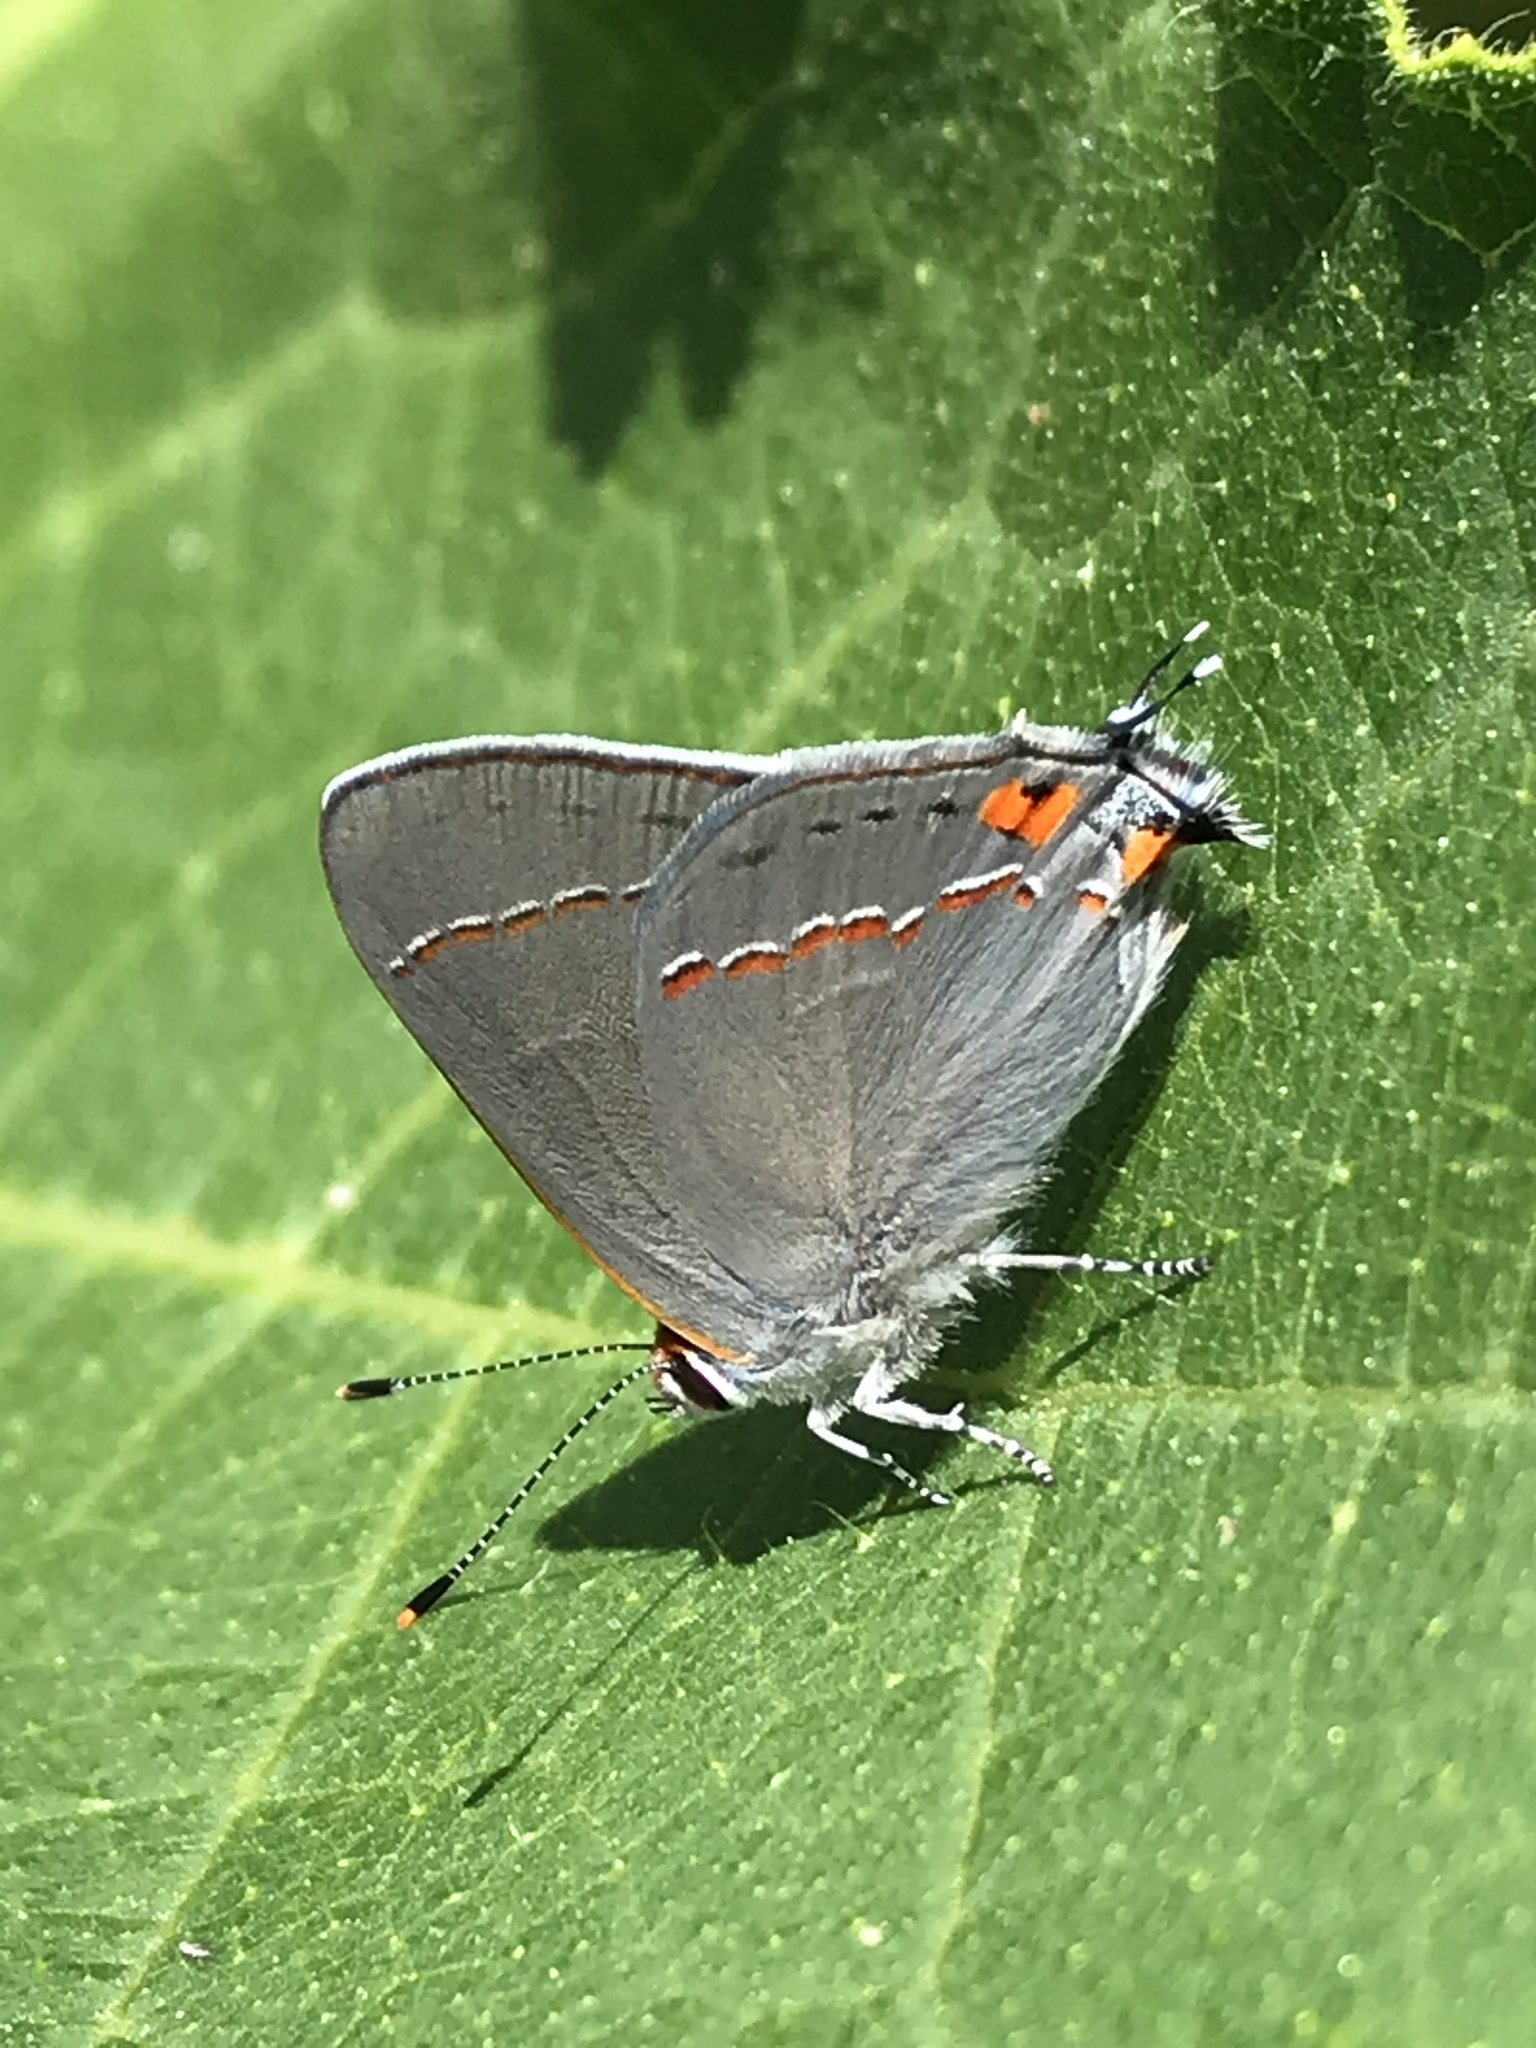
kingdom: Animalia
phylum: Arthropoda
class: Insecta
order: Lepidoptera
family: Lycaenidae
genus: Strymon
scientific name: Strymon melinus
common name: Gray hairstreak
